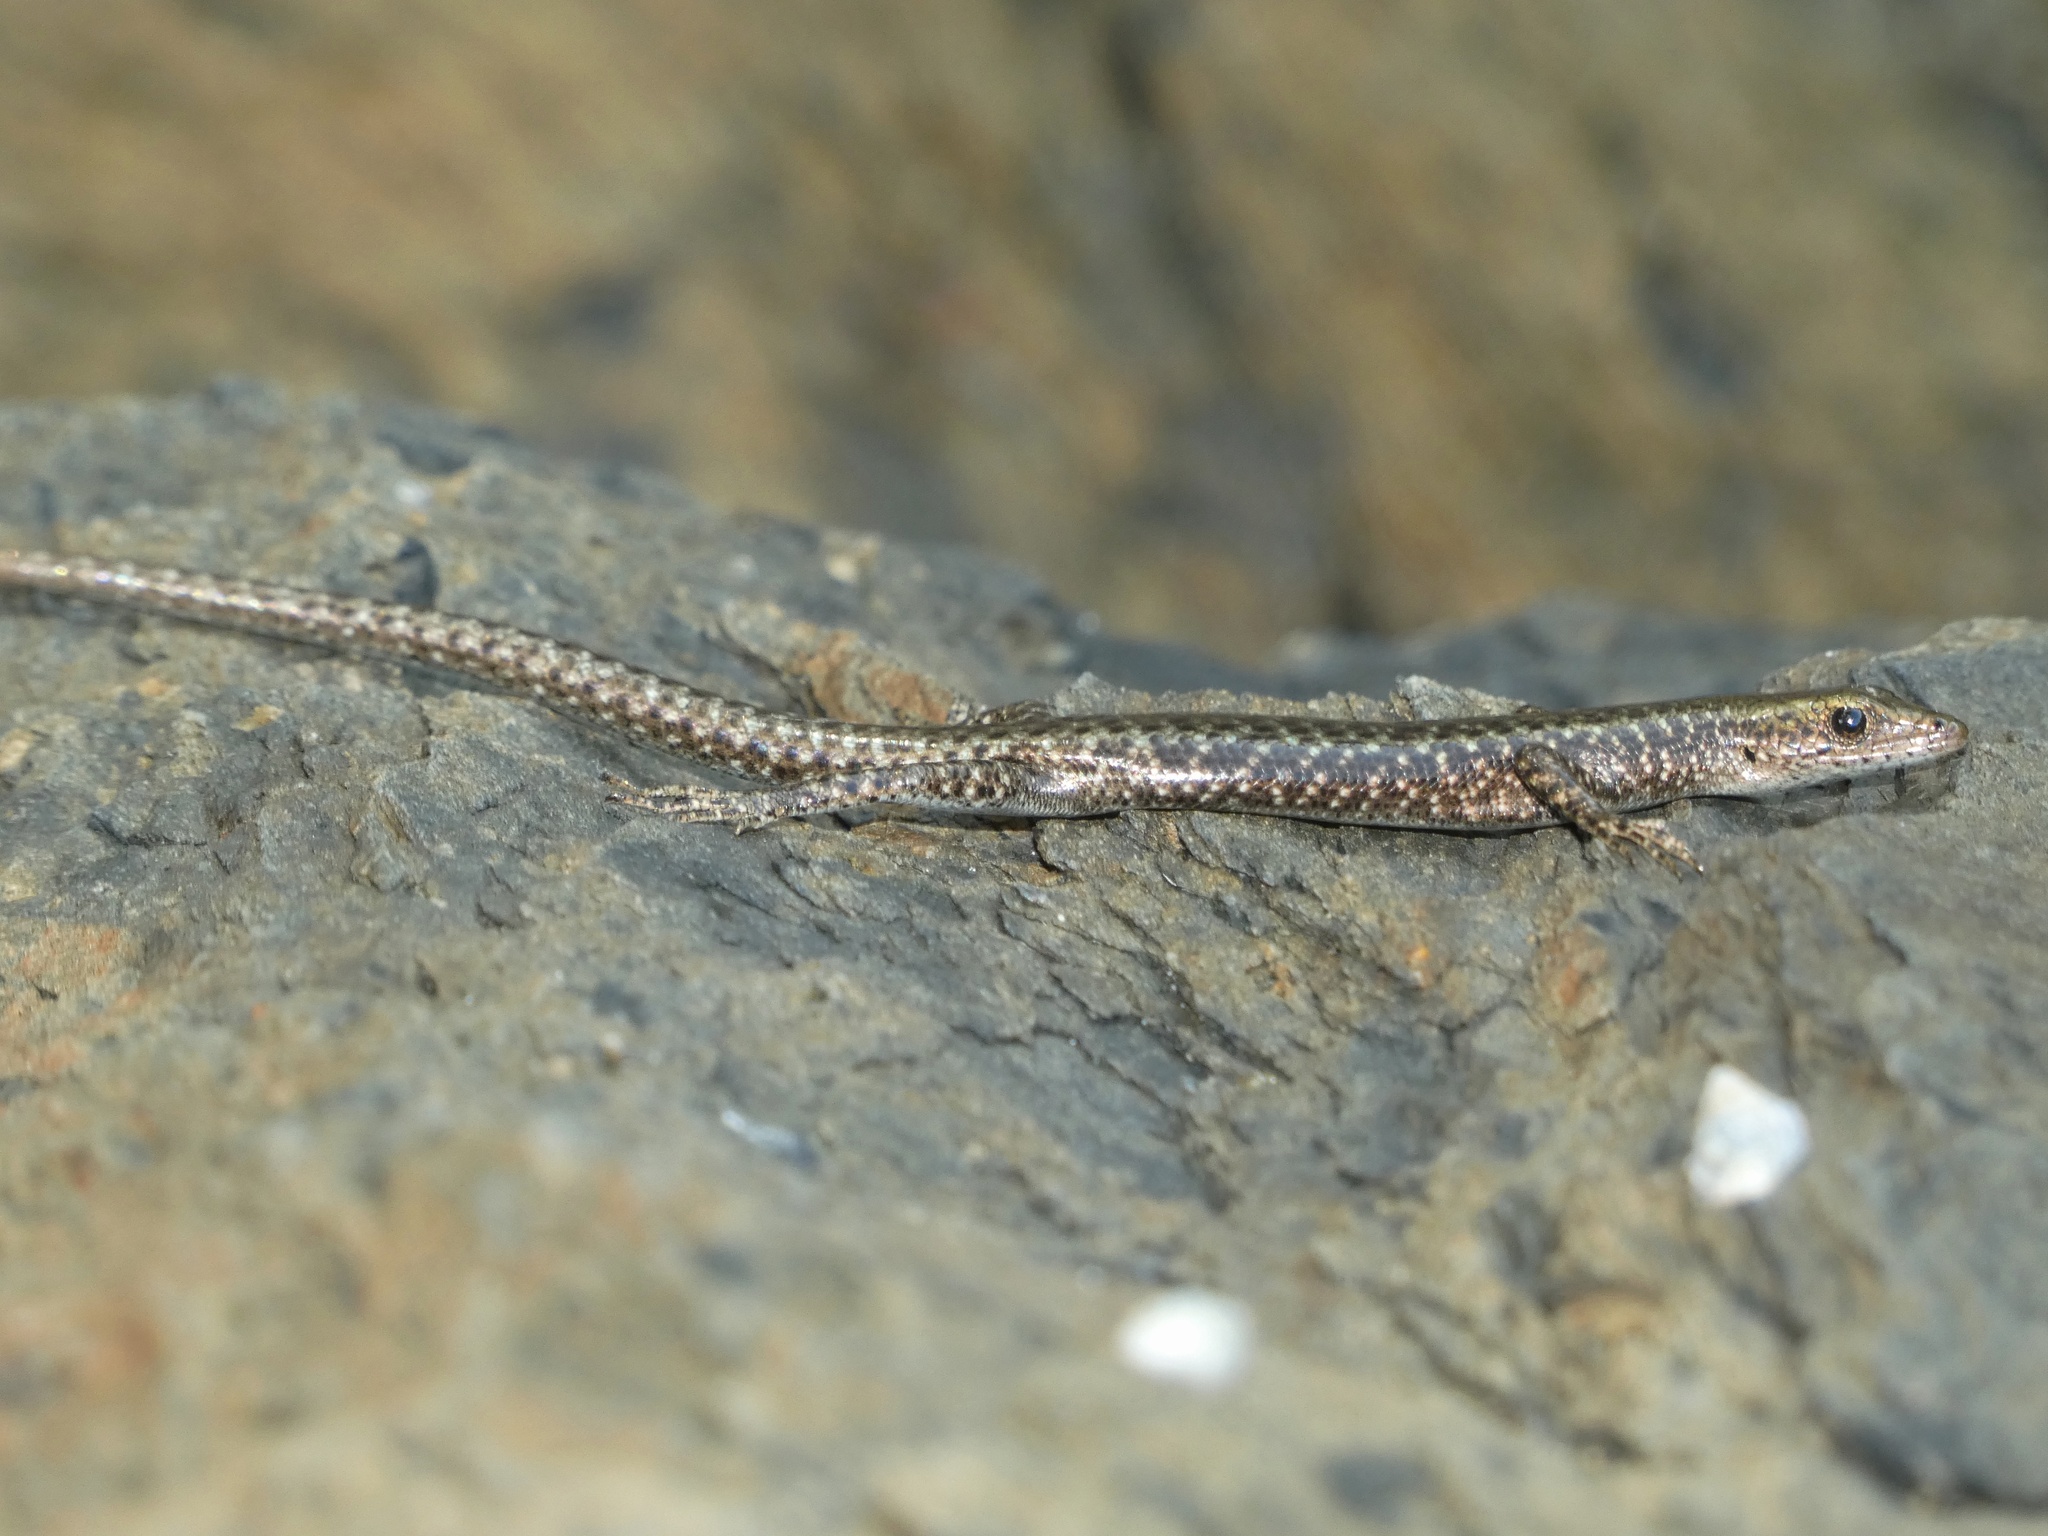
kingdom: Animalia
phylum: Chordata
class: Squamata
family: Scincidae
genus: Cryptoblepharus
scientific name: Cryptoblepharus litoralis
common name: Coastal snake-eyed skink
